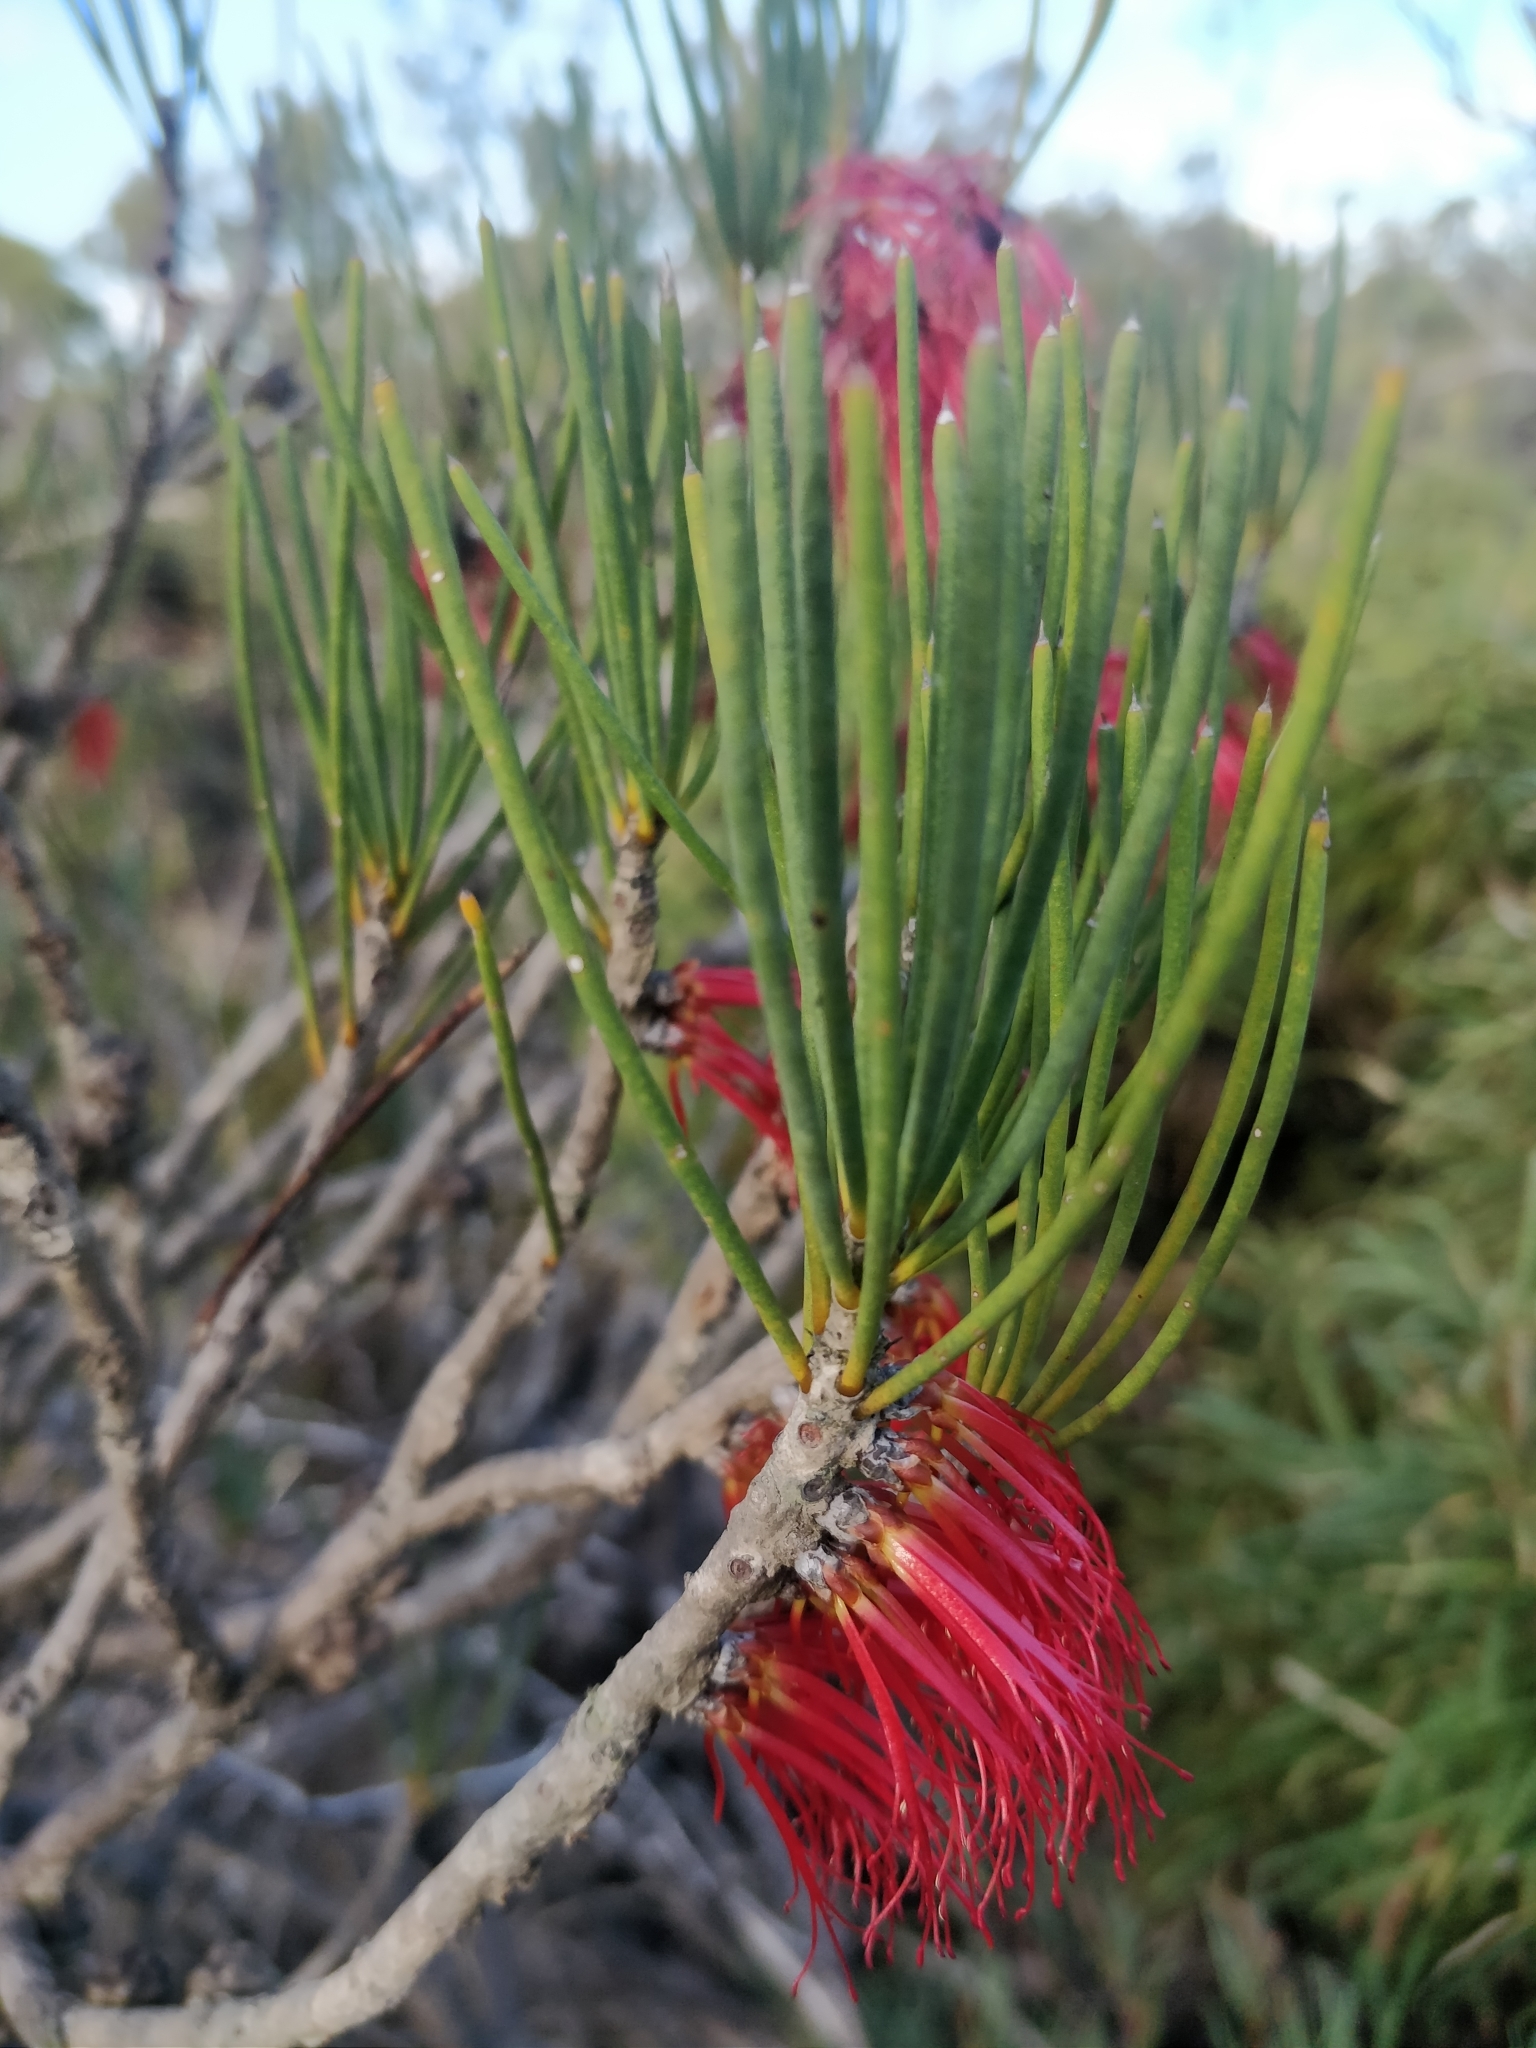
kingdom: Plantae
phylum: Tracheophyta
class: Magnoliopsida
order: Myrtales
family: Myrtaceae
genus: Melaleuca
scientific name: Melaleuca alilateralis
